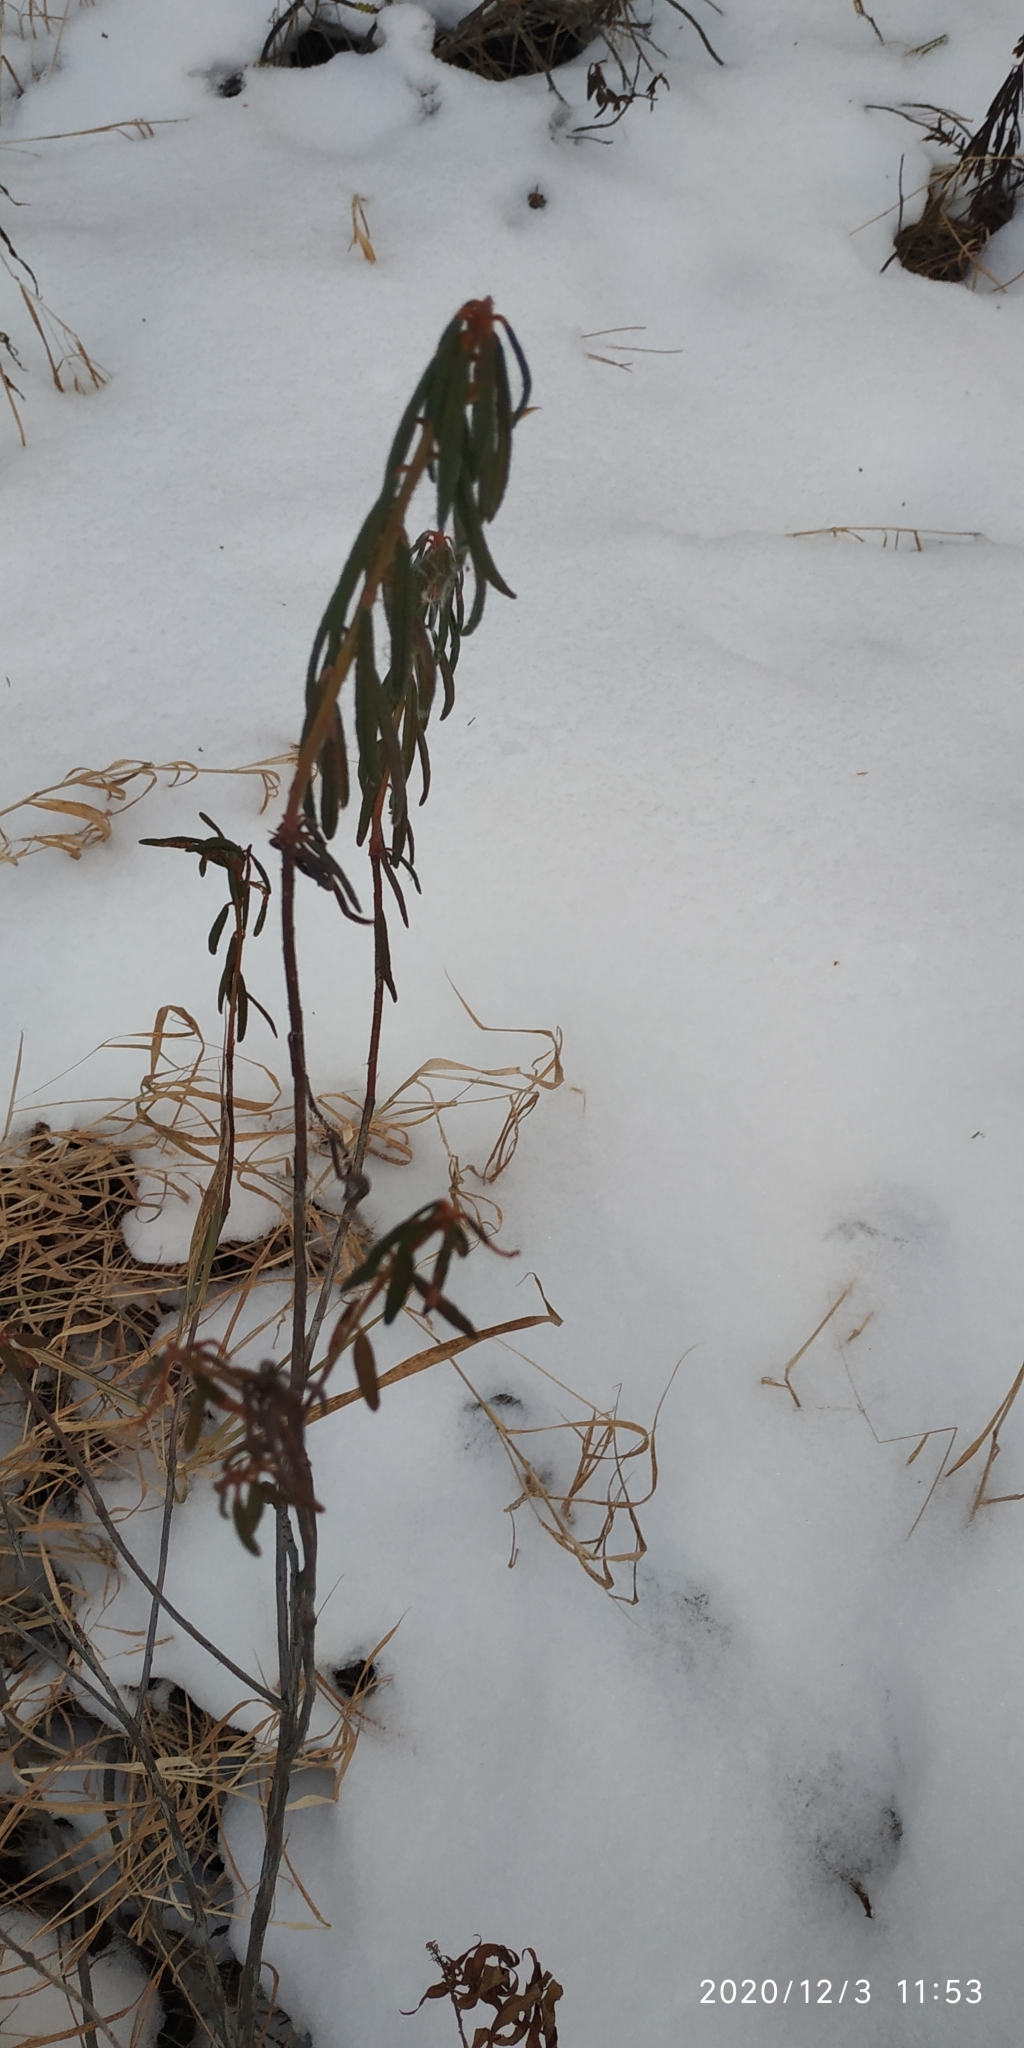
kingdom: Plantae
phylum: Tracheophyta
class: Magnoliopsida
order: Ericales
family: Ericaceae
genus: Rhododendron
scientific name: Rhododendron tomentosum
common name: Marsh labrador tea
